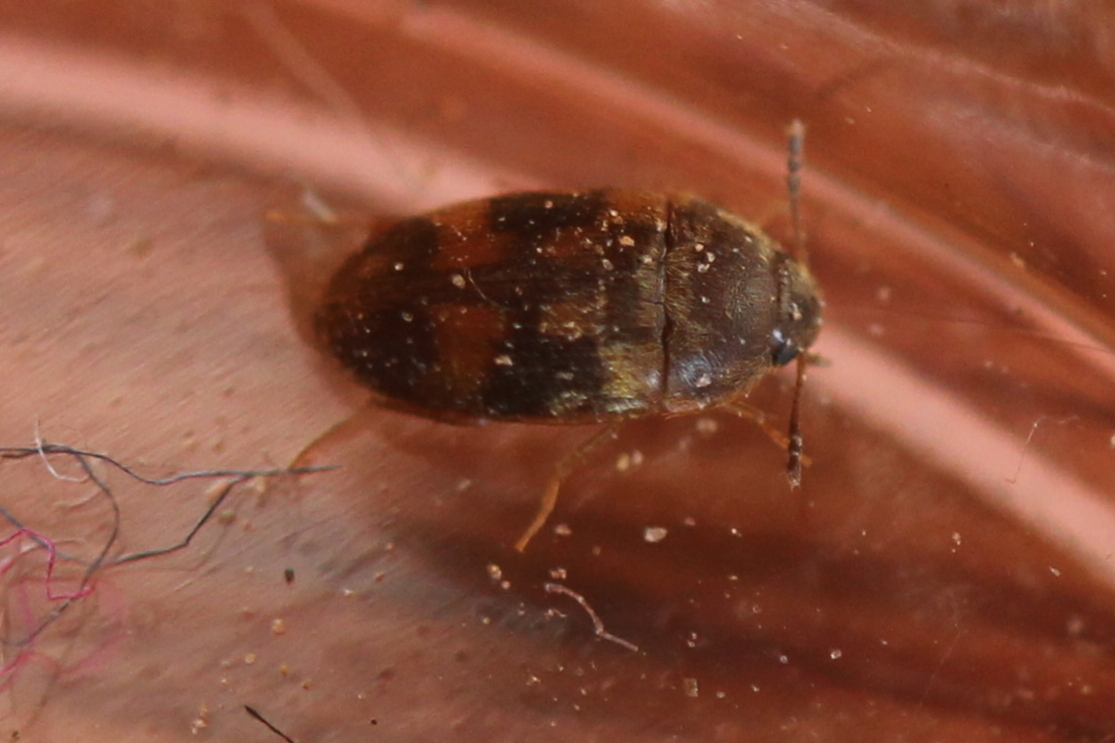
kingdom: Animalia
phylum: Arthropoda
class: Insecta
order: Coleoptera
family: Mycetophagidae
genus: Litargus
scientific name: Litargus balteatus
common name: Stored grain hairy fungus beetle
